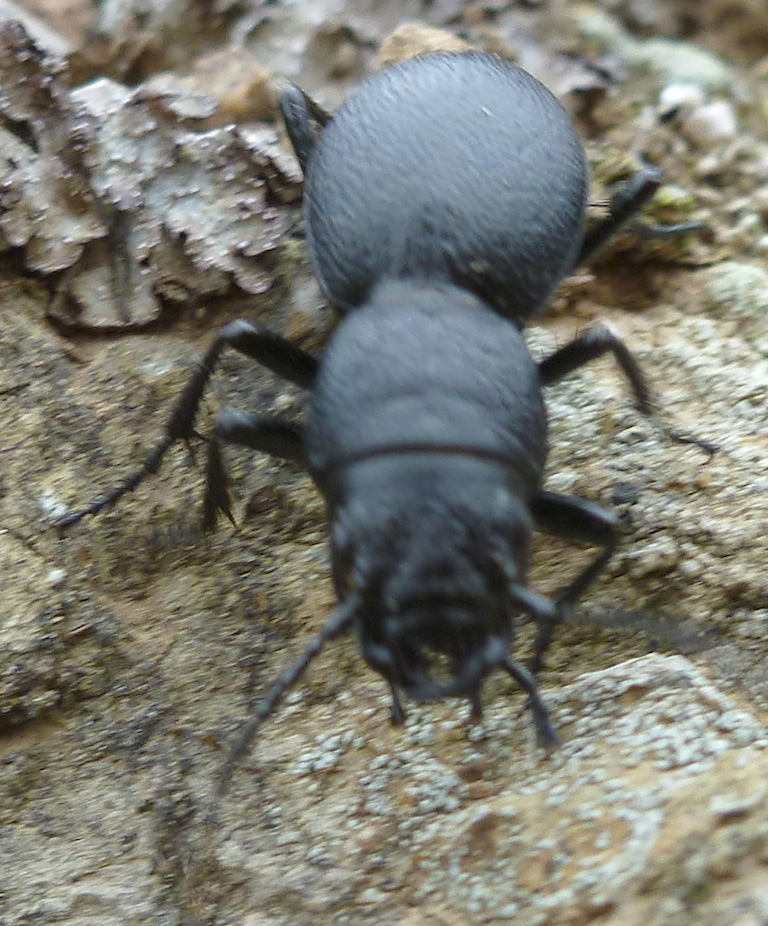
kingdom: Animalia
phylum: Arthropoda
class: Insecta
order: Coleoptera
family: Carabidae
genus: Omus
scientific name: Omus californicus
